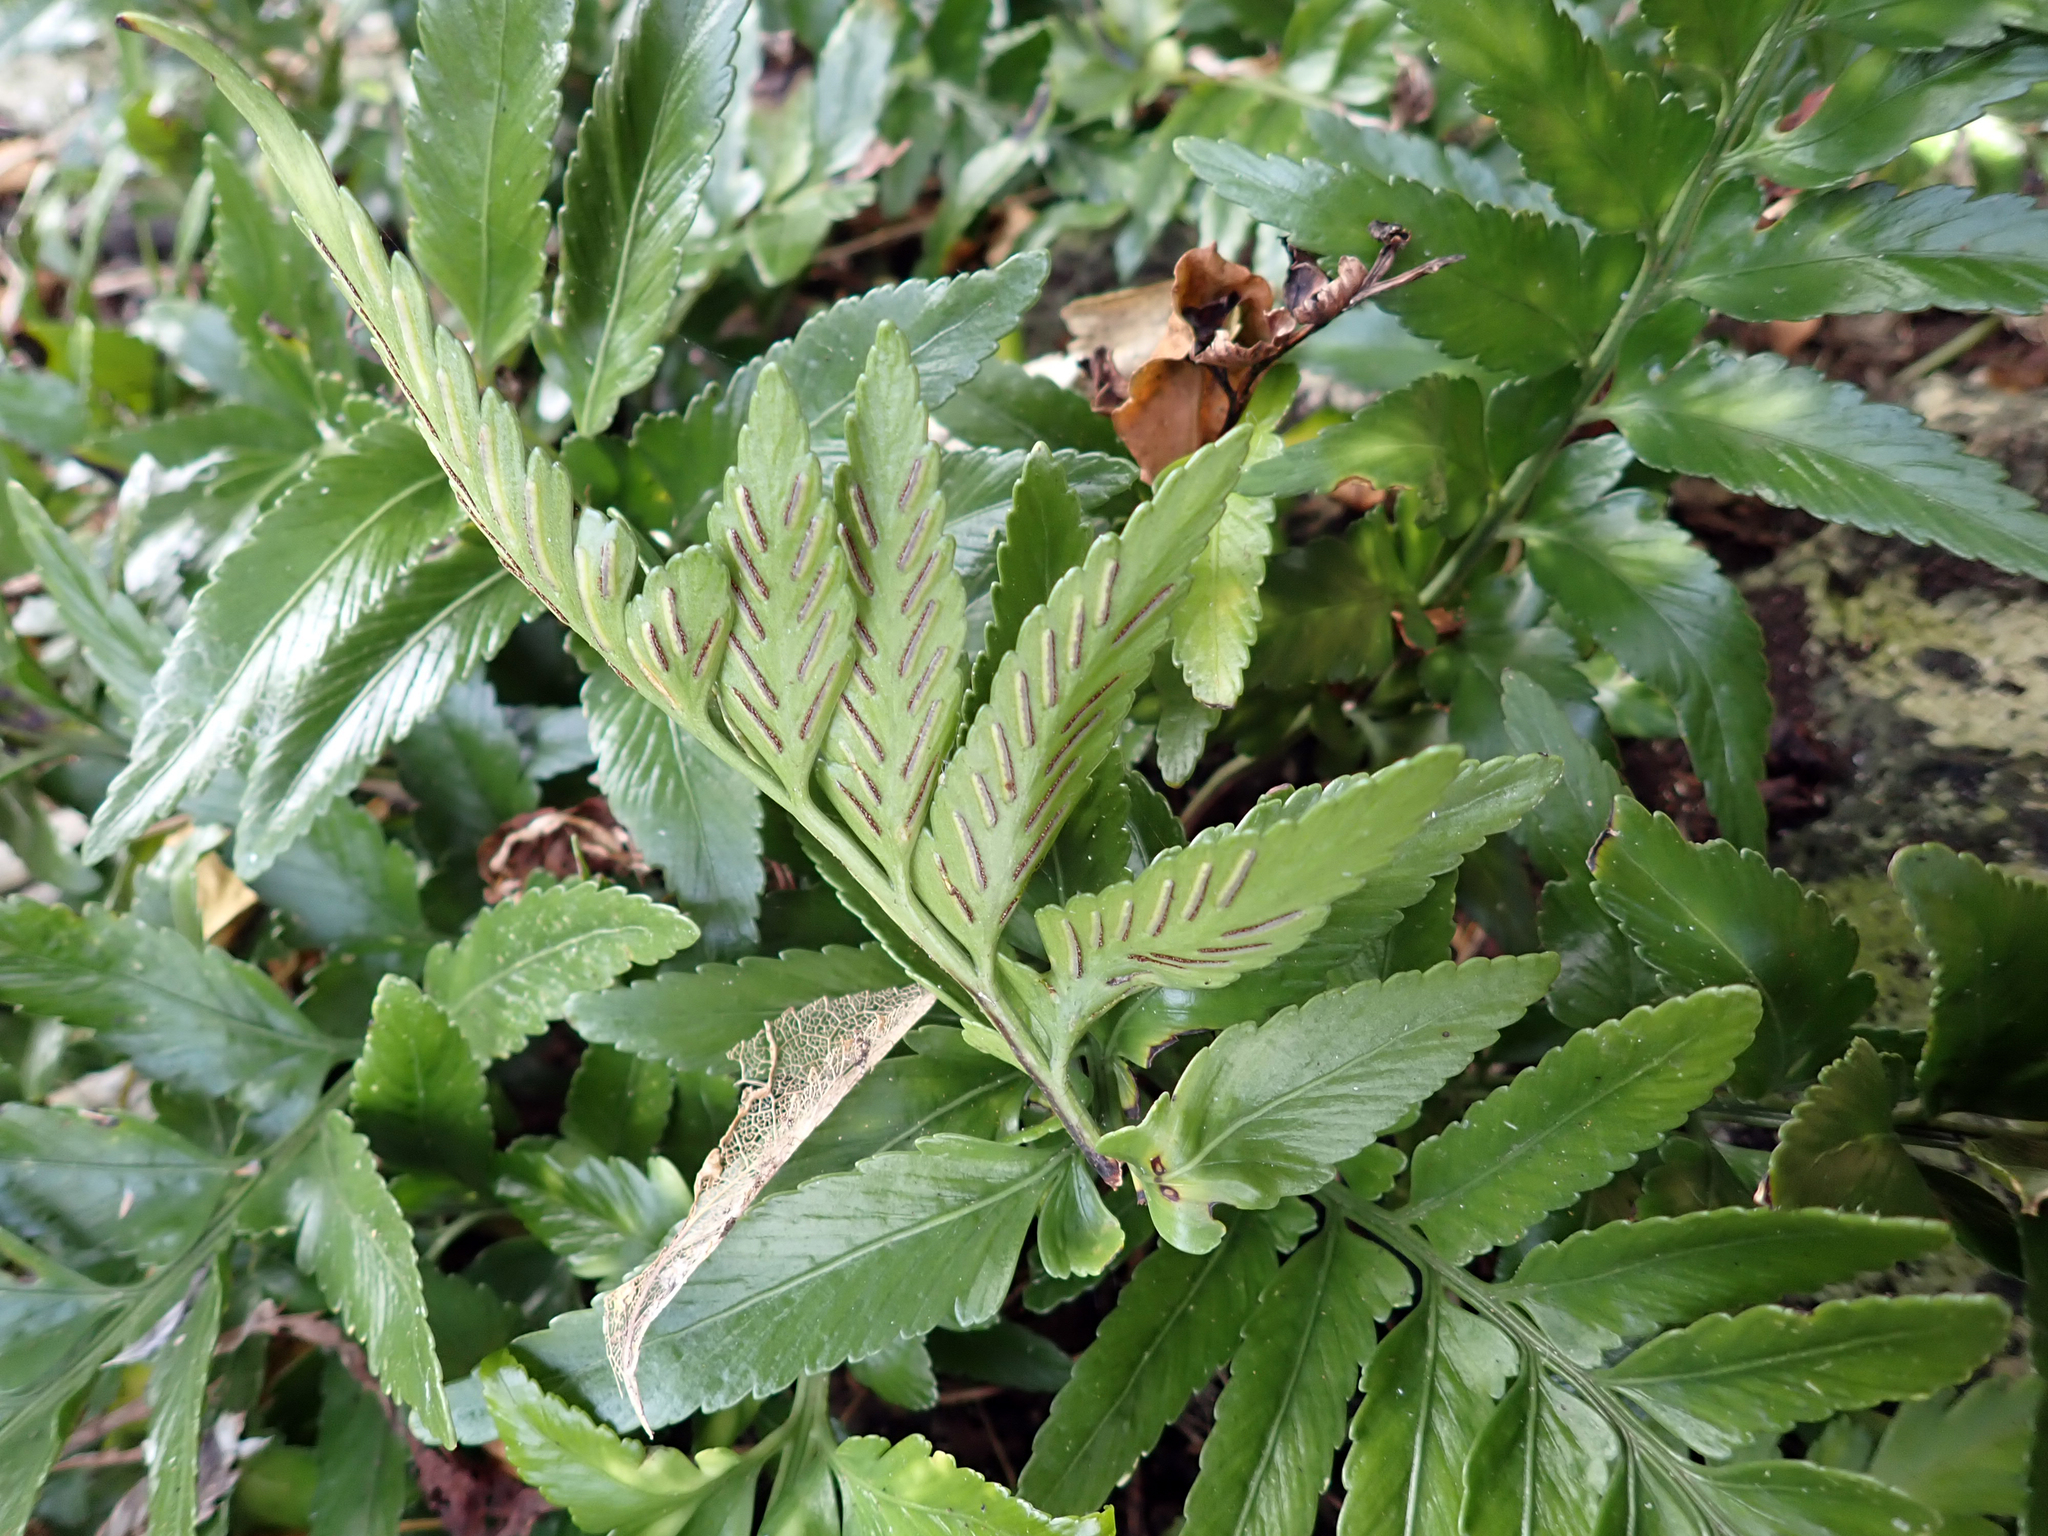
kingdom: Plantae
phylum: Tracheophyta
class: Polypodiopsida
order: Polypodiales
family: Aspleniaceae
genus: Asplenium
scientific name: Asplenium lyallii
